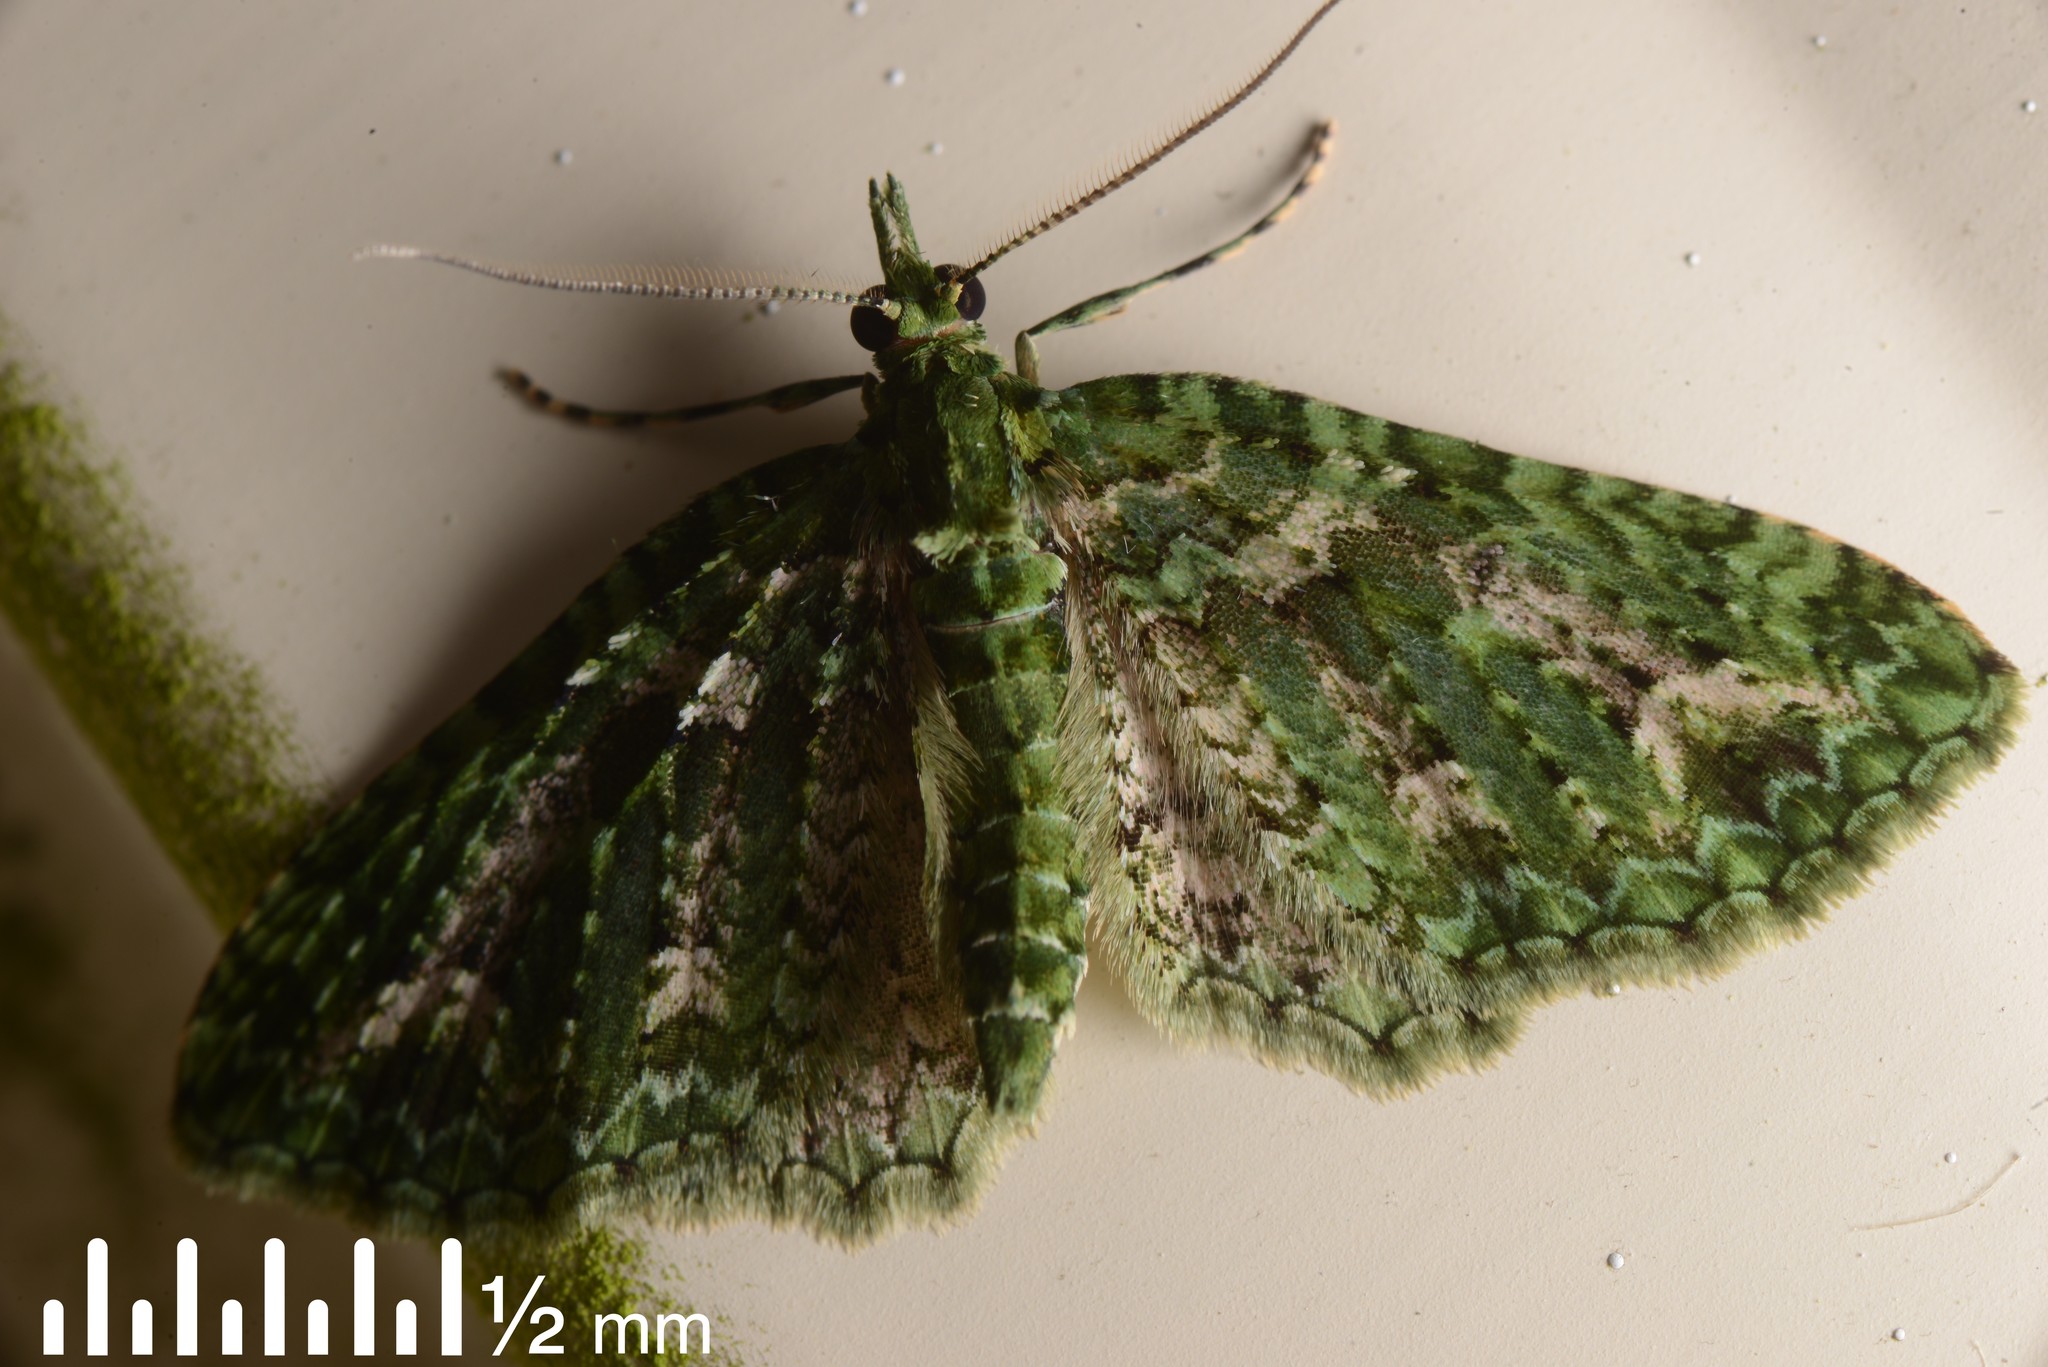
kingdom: Animalia
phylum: Arthropoda
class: Insecta
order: Lepidoptera
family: Geometridae
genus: Pasiphila
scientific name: Pasiphila muscosata
